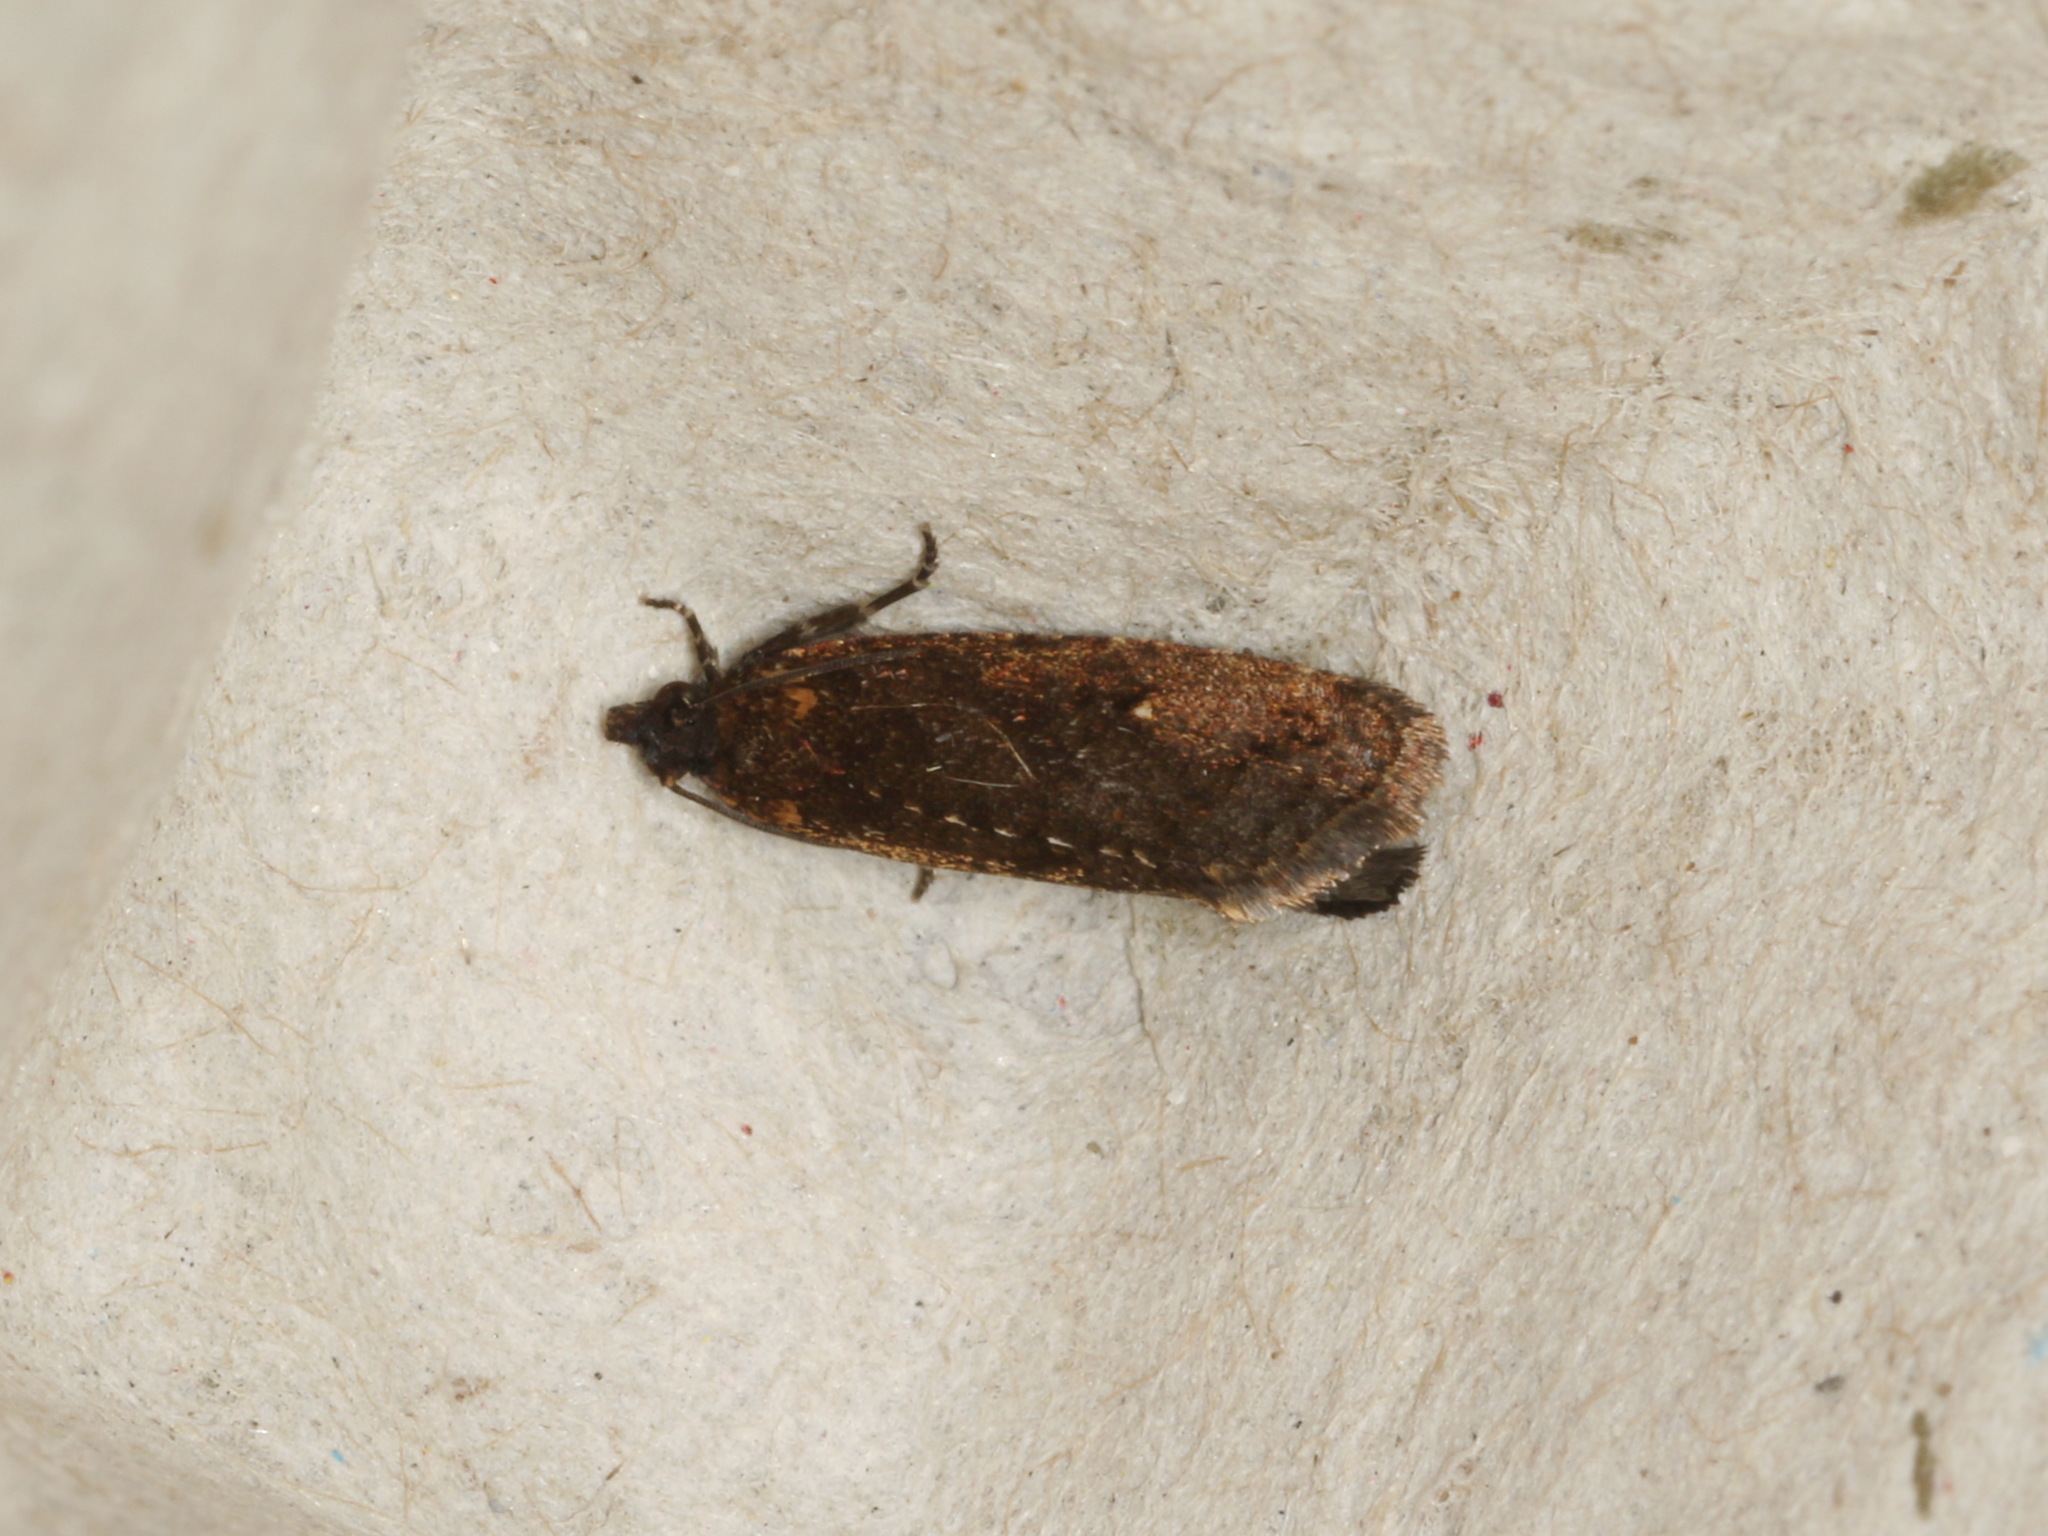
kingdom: Animalia
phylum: Arthropoda
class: Insecta
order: Lepidoptera
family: Tortricidae
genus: Cryptaspasma
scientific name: Cryptaspasma sordida
